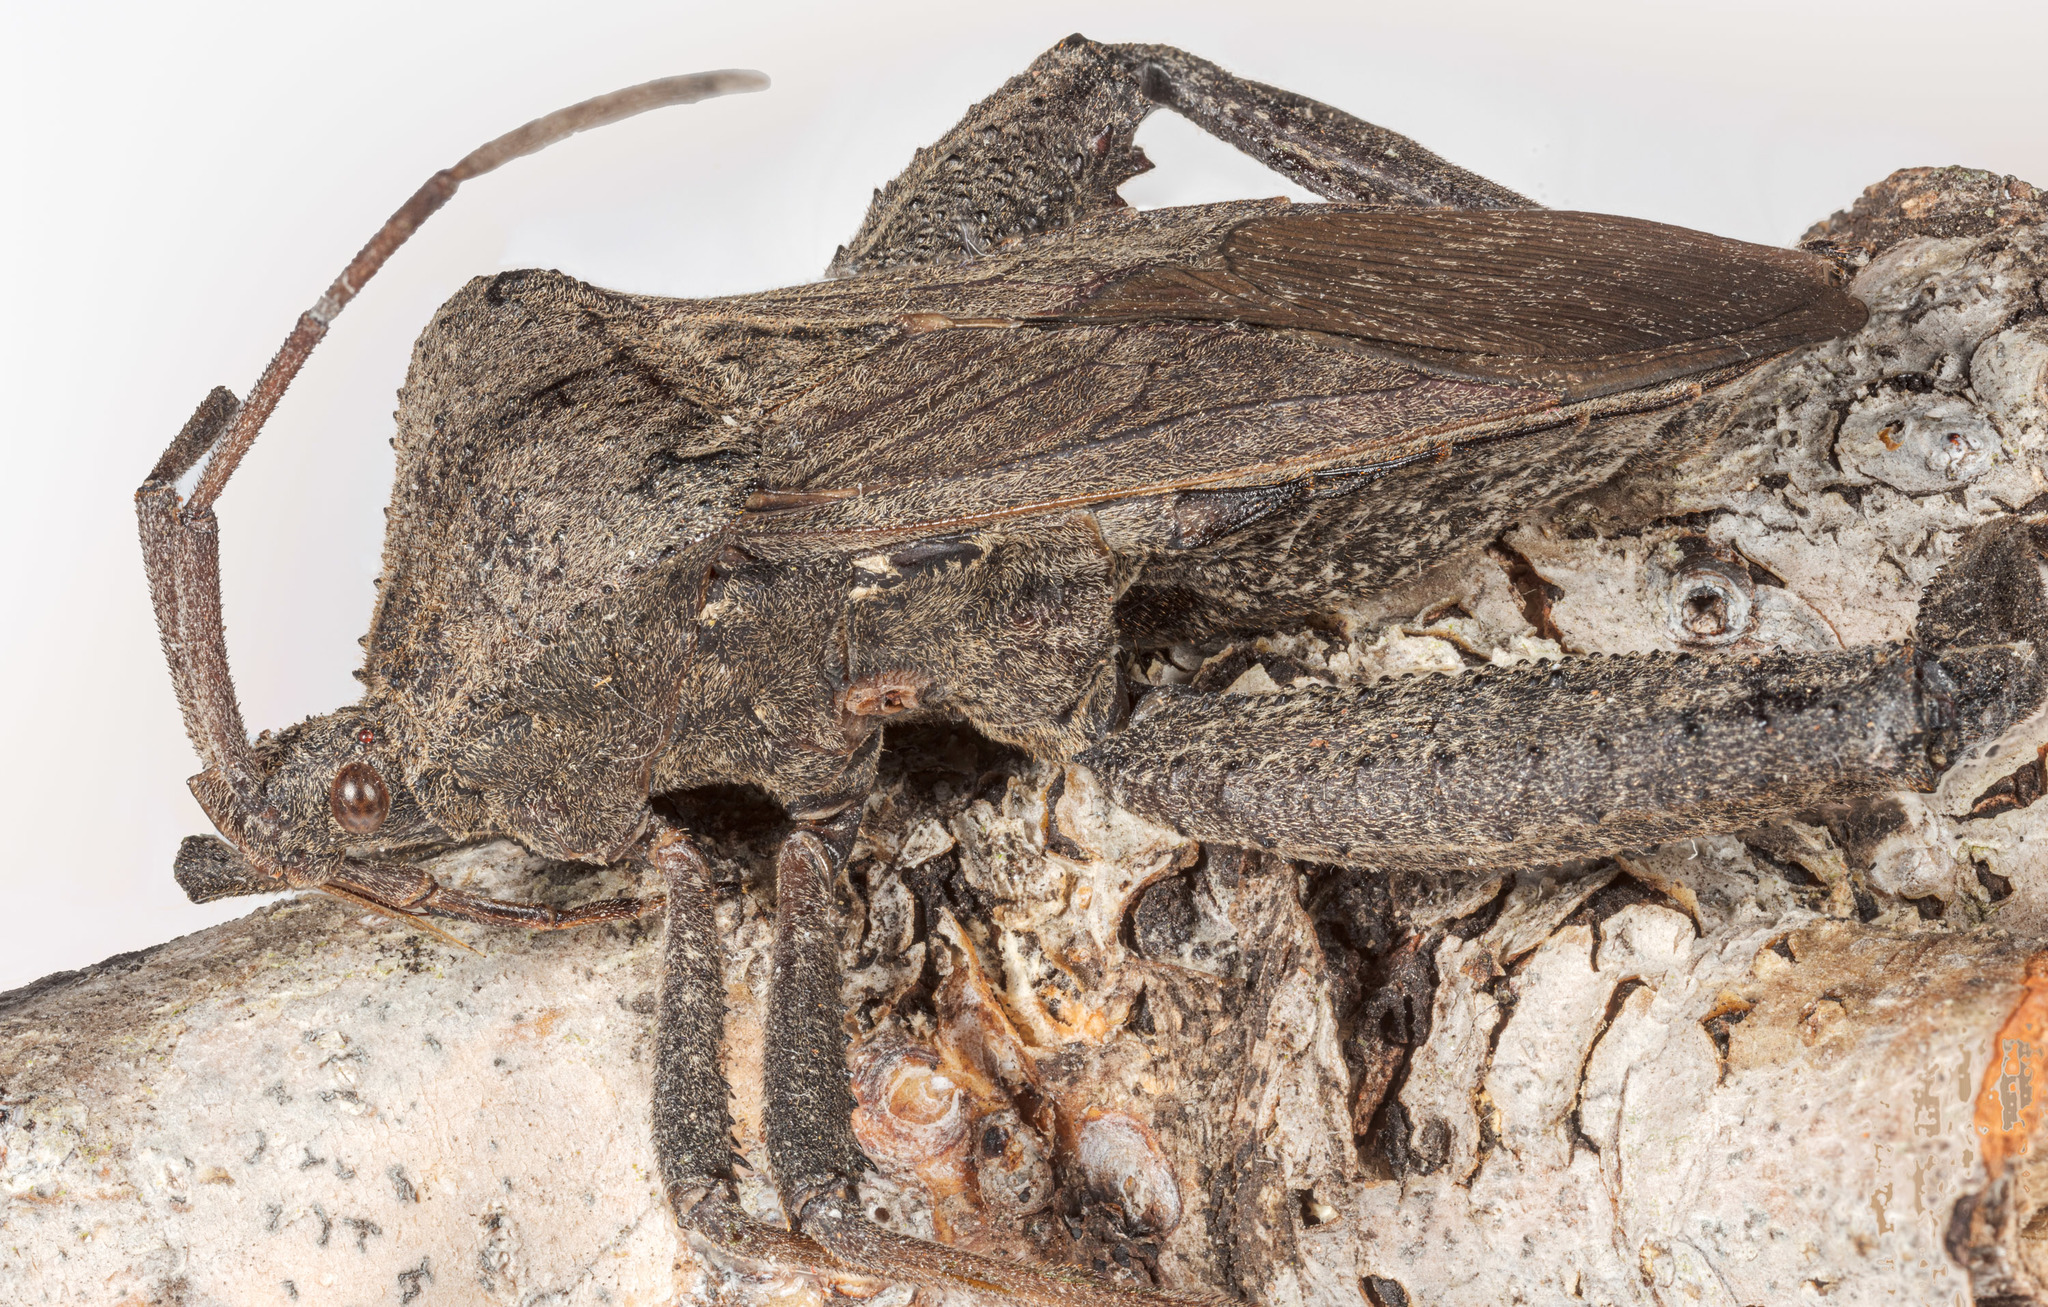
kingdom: Animalia
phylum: Arthropoda
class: Insecta
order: Hemiptera
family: Coreidae
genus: Acanthocephala
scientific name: Acanthocephala femorata
